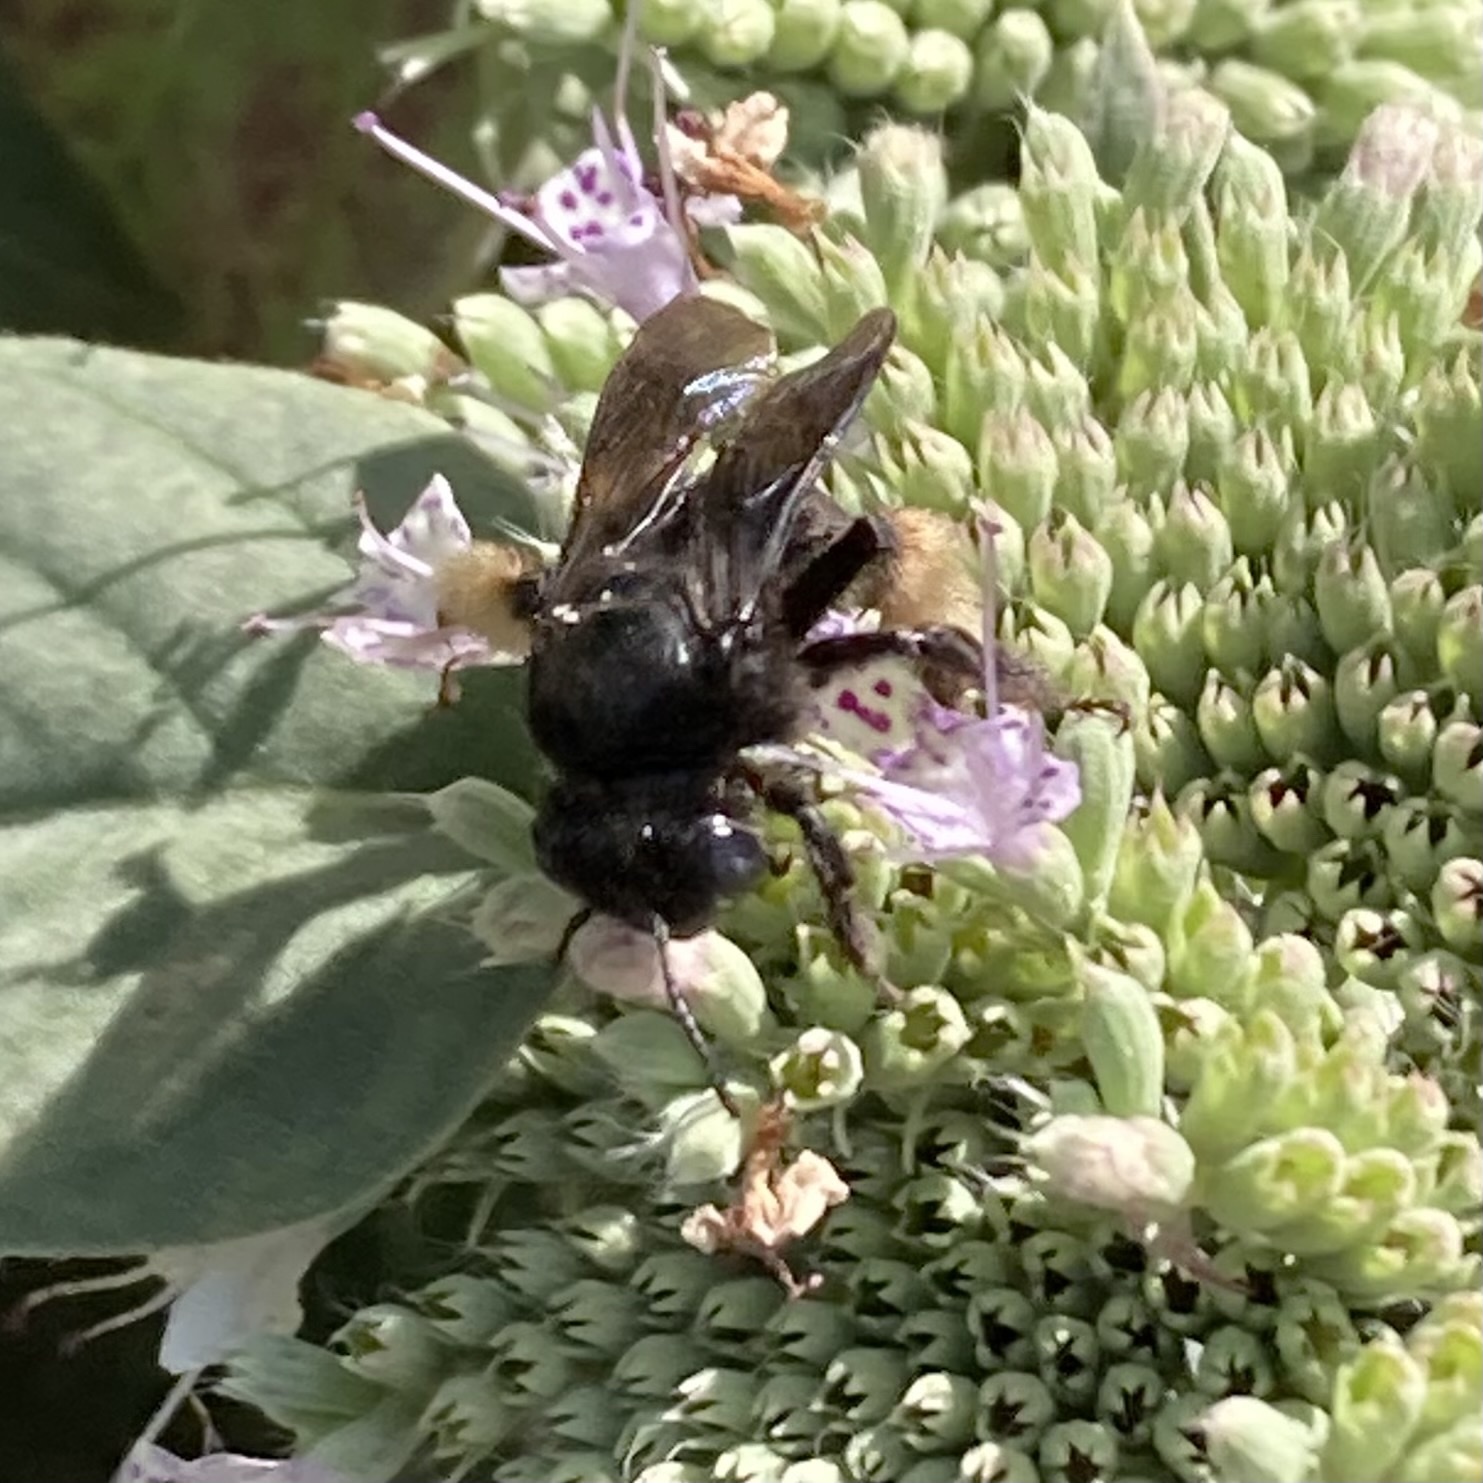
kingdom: Animalia
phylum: Arthropoda
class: Insecta
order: Hymenoptera
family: Apidae
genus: Melissodes
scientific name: Melissodes bimaculatus
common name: Two-spotted long-horned bee
